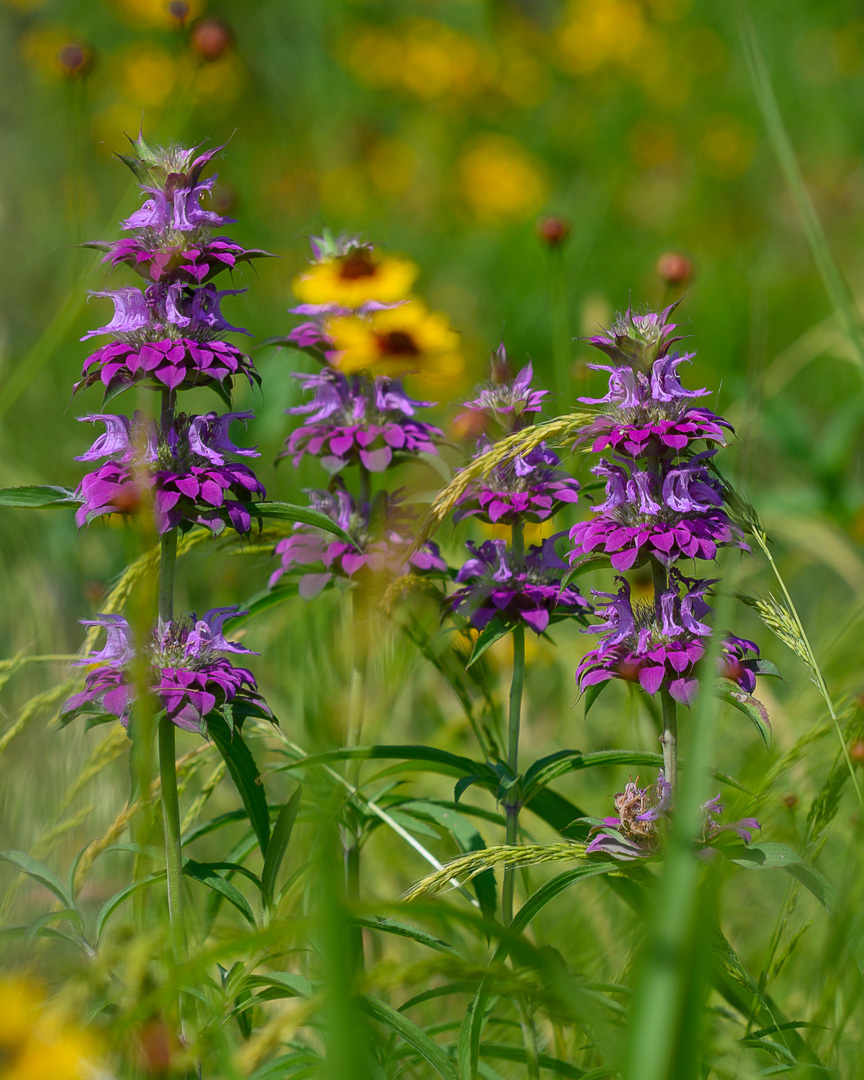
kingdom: Plantae
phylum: Tracheophyta
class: Magnoliopsida
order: Lamiales
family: Lamiaceae
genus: Monarda
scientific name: Monarda citriodora
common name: Lemon beebalm
